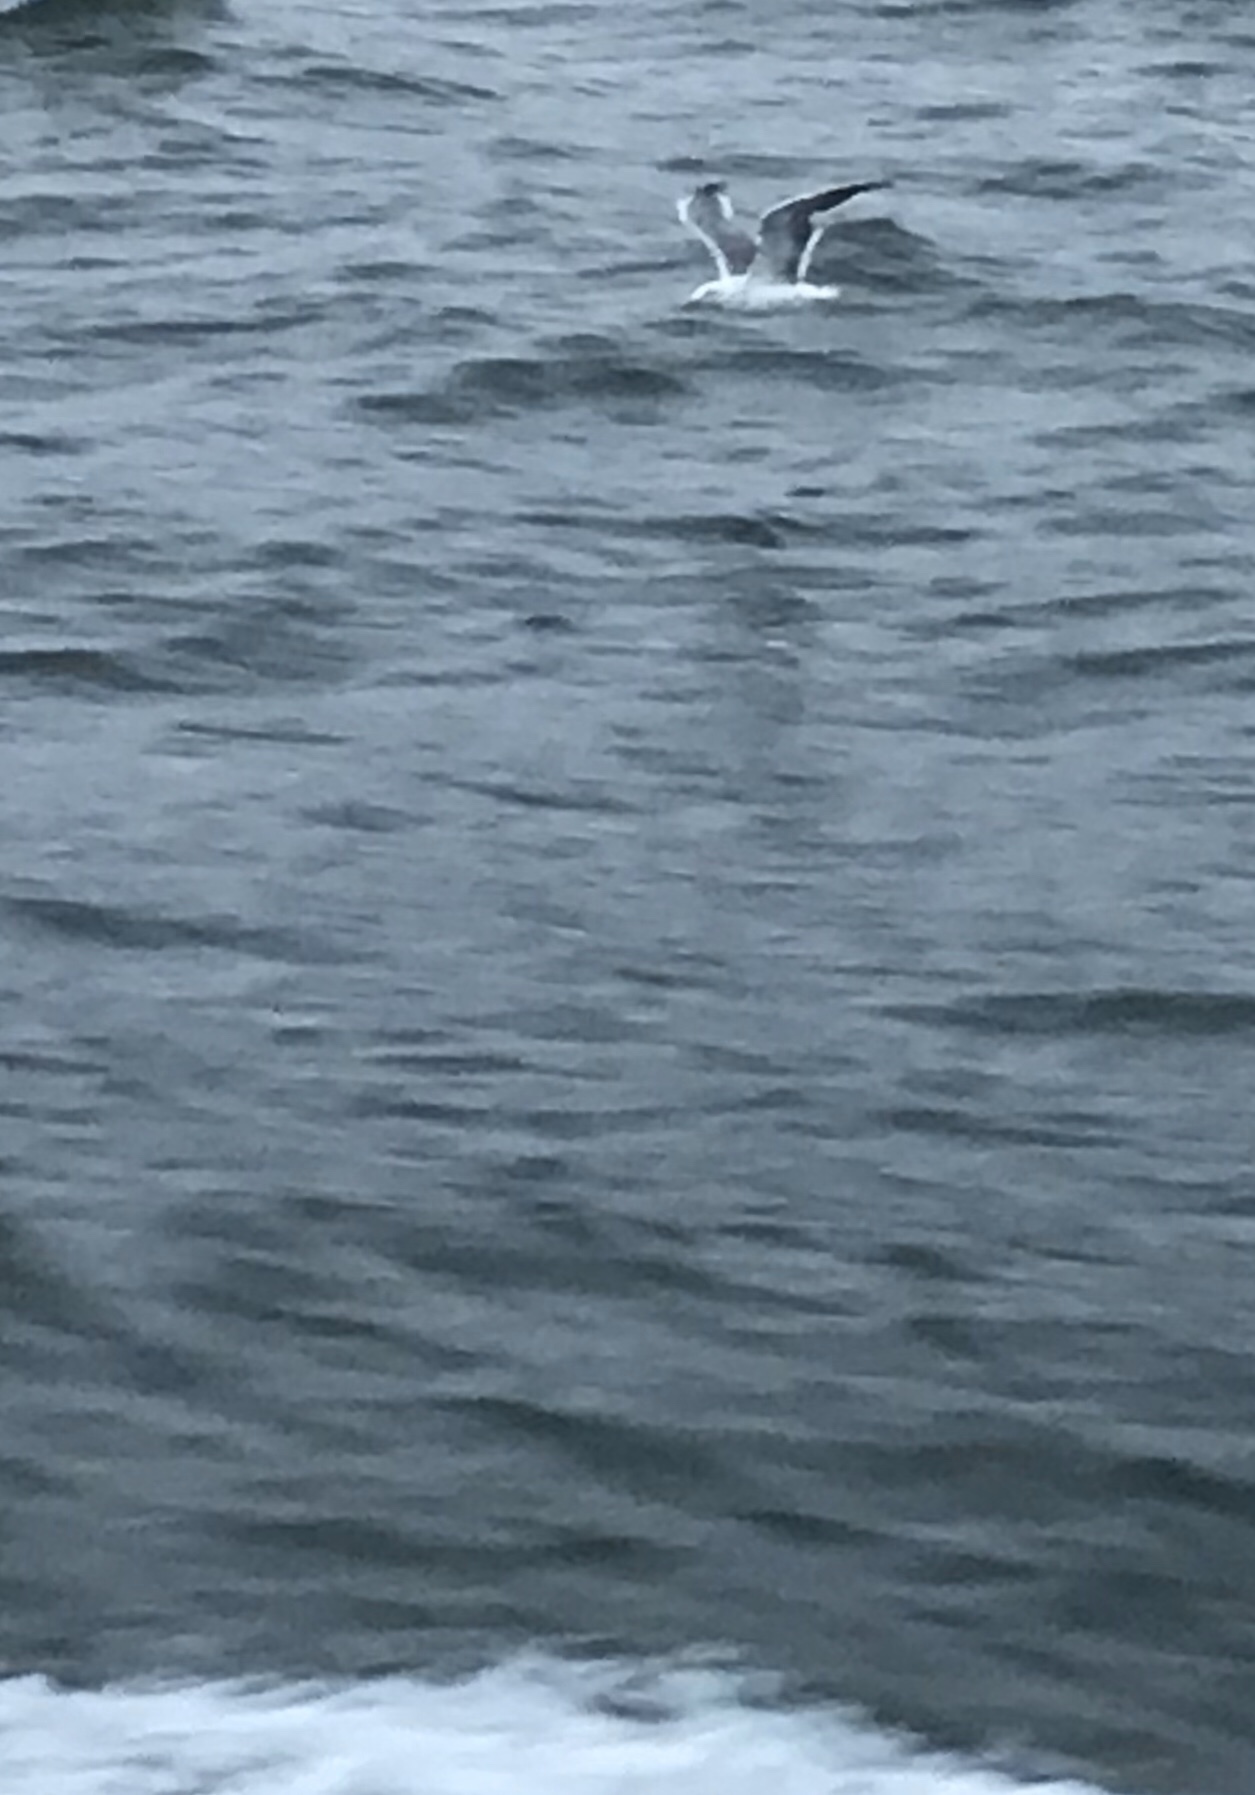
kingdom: Animalia
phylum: Chordata
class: Aves
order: Charadriiformes
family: Laridae
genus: Larus
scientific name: Larus occidentalis
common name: Western gull
